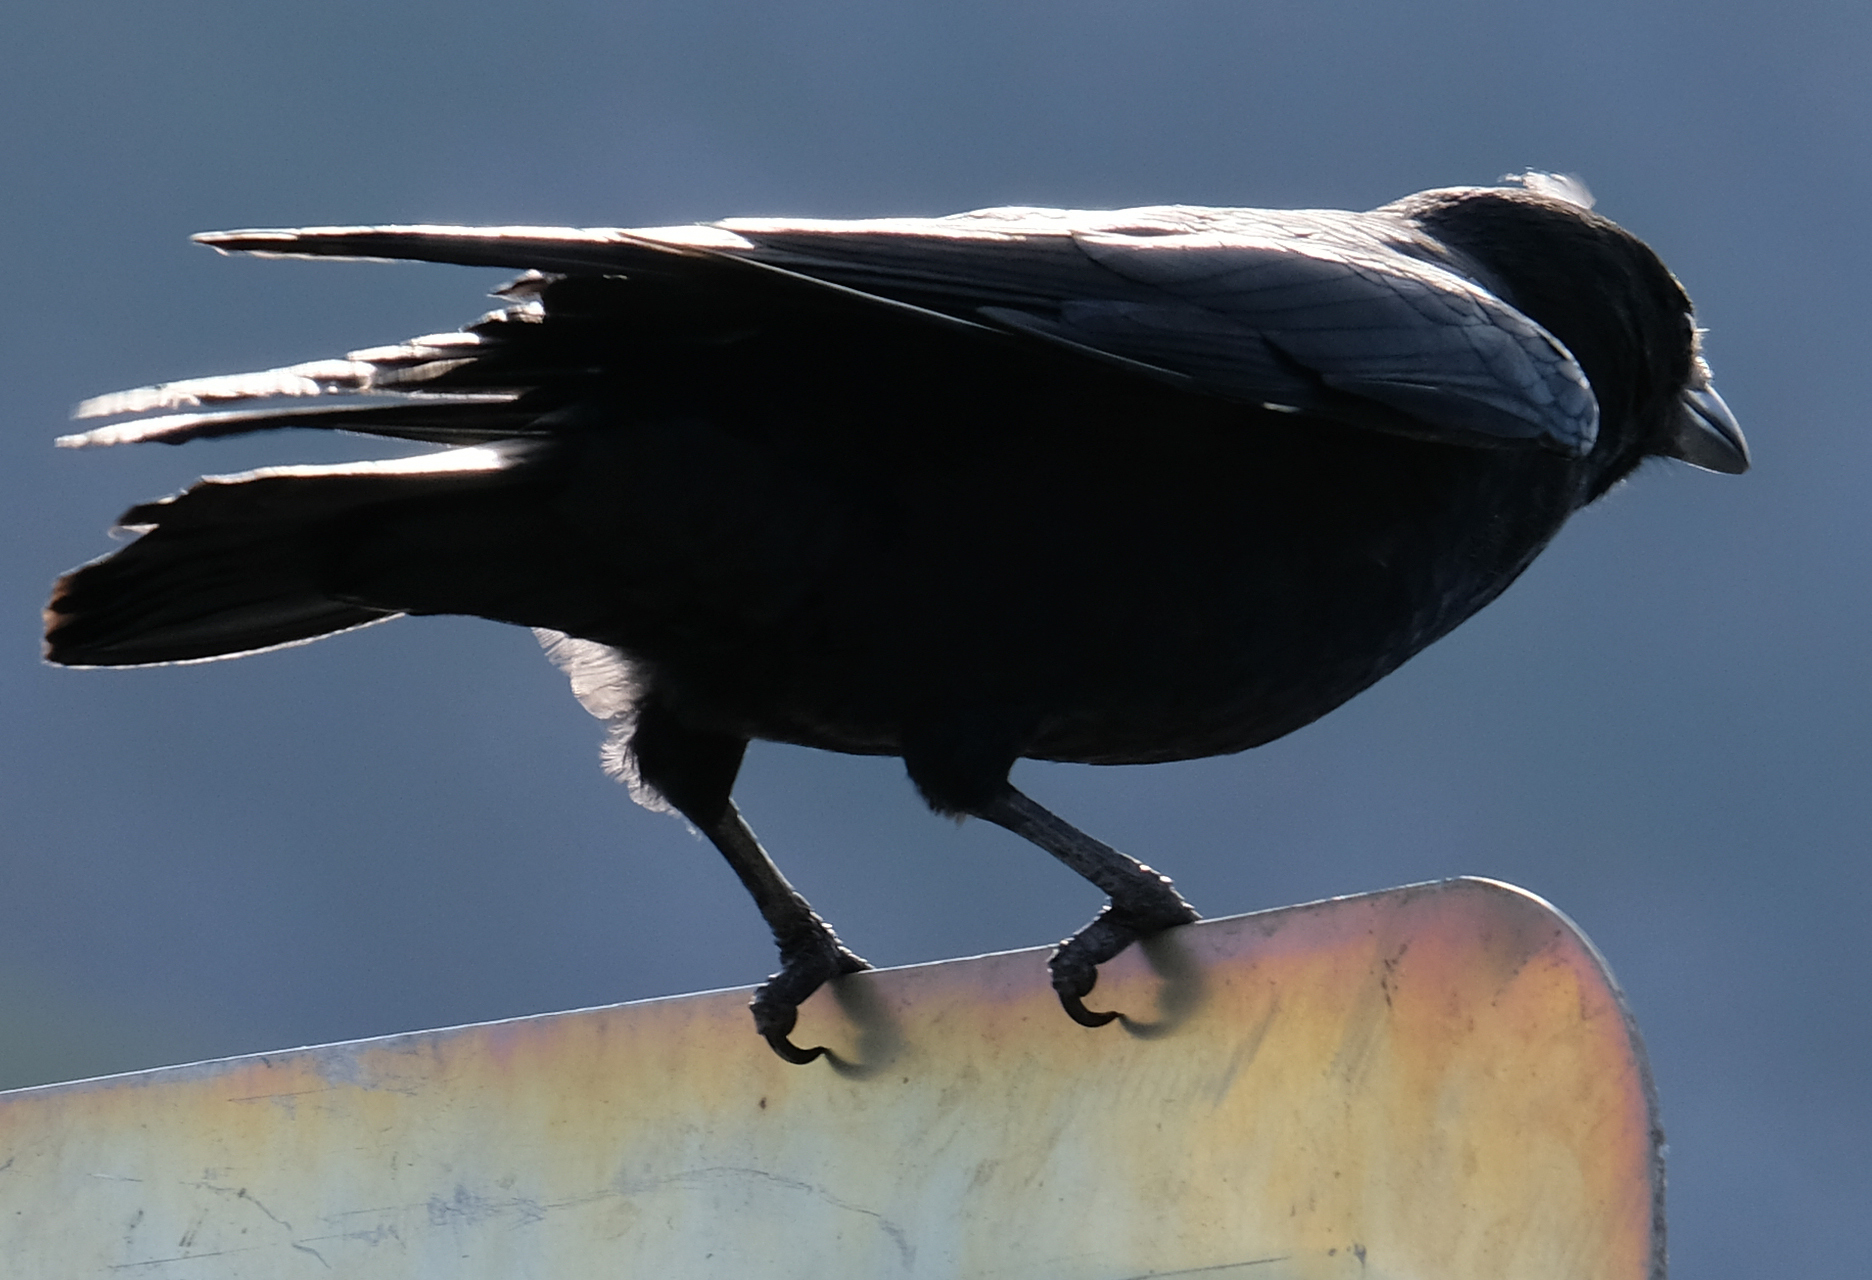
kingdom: Animalia
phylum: Chordata
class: Aves
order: Passeriformes
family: Corvidae
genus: Corvus
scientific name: Corvus brachyrhynchos
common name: American crow
